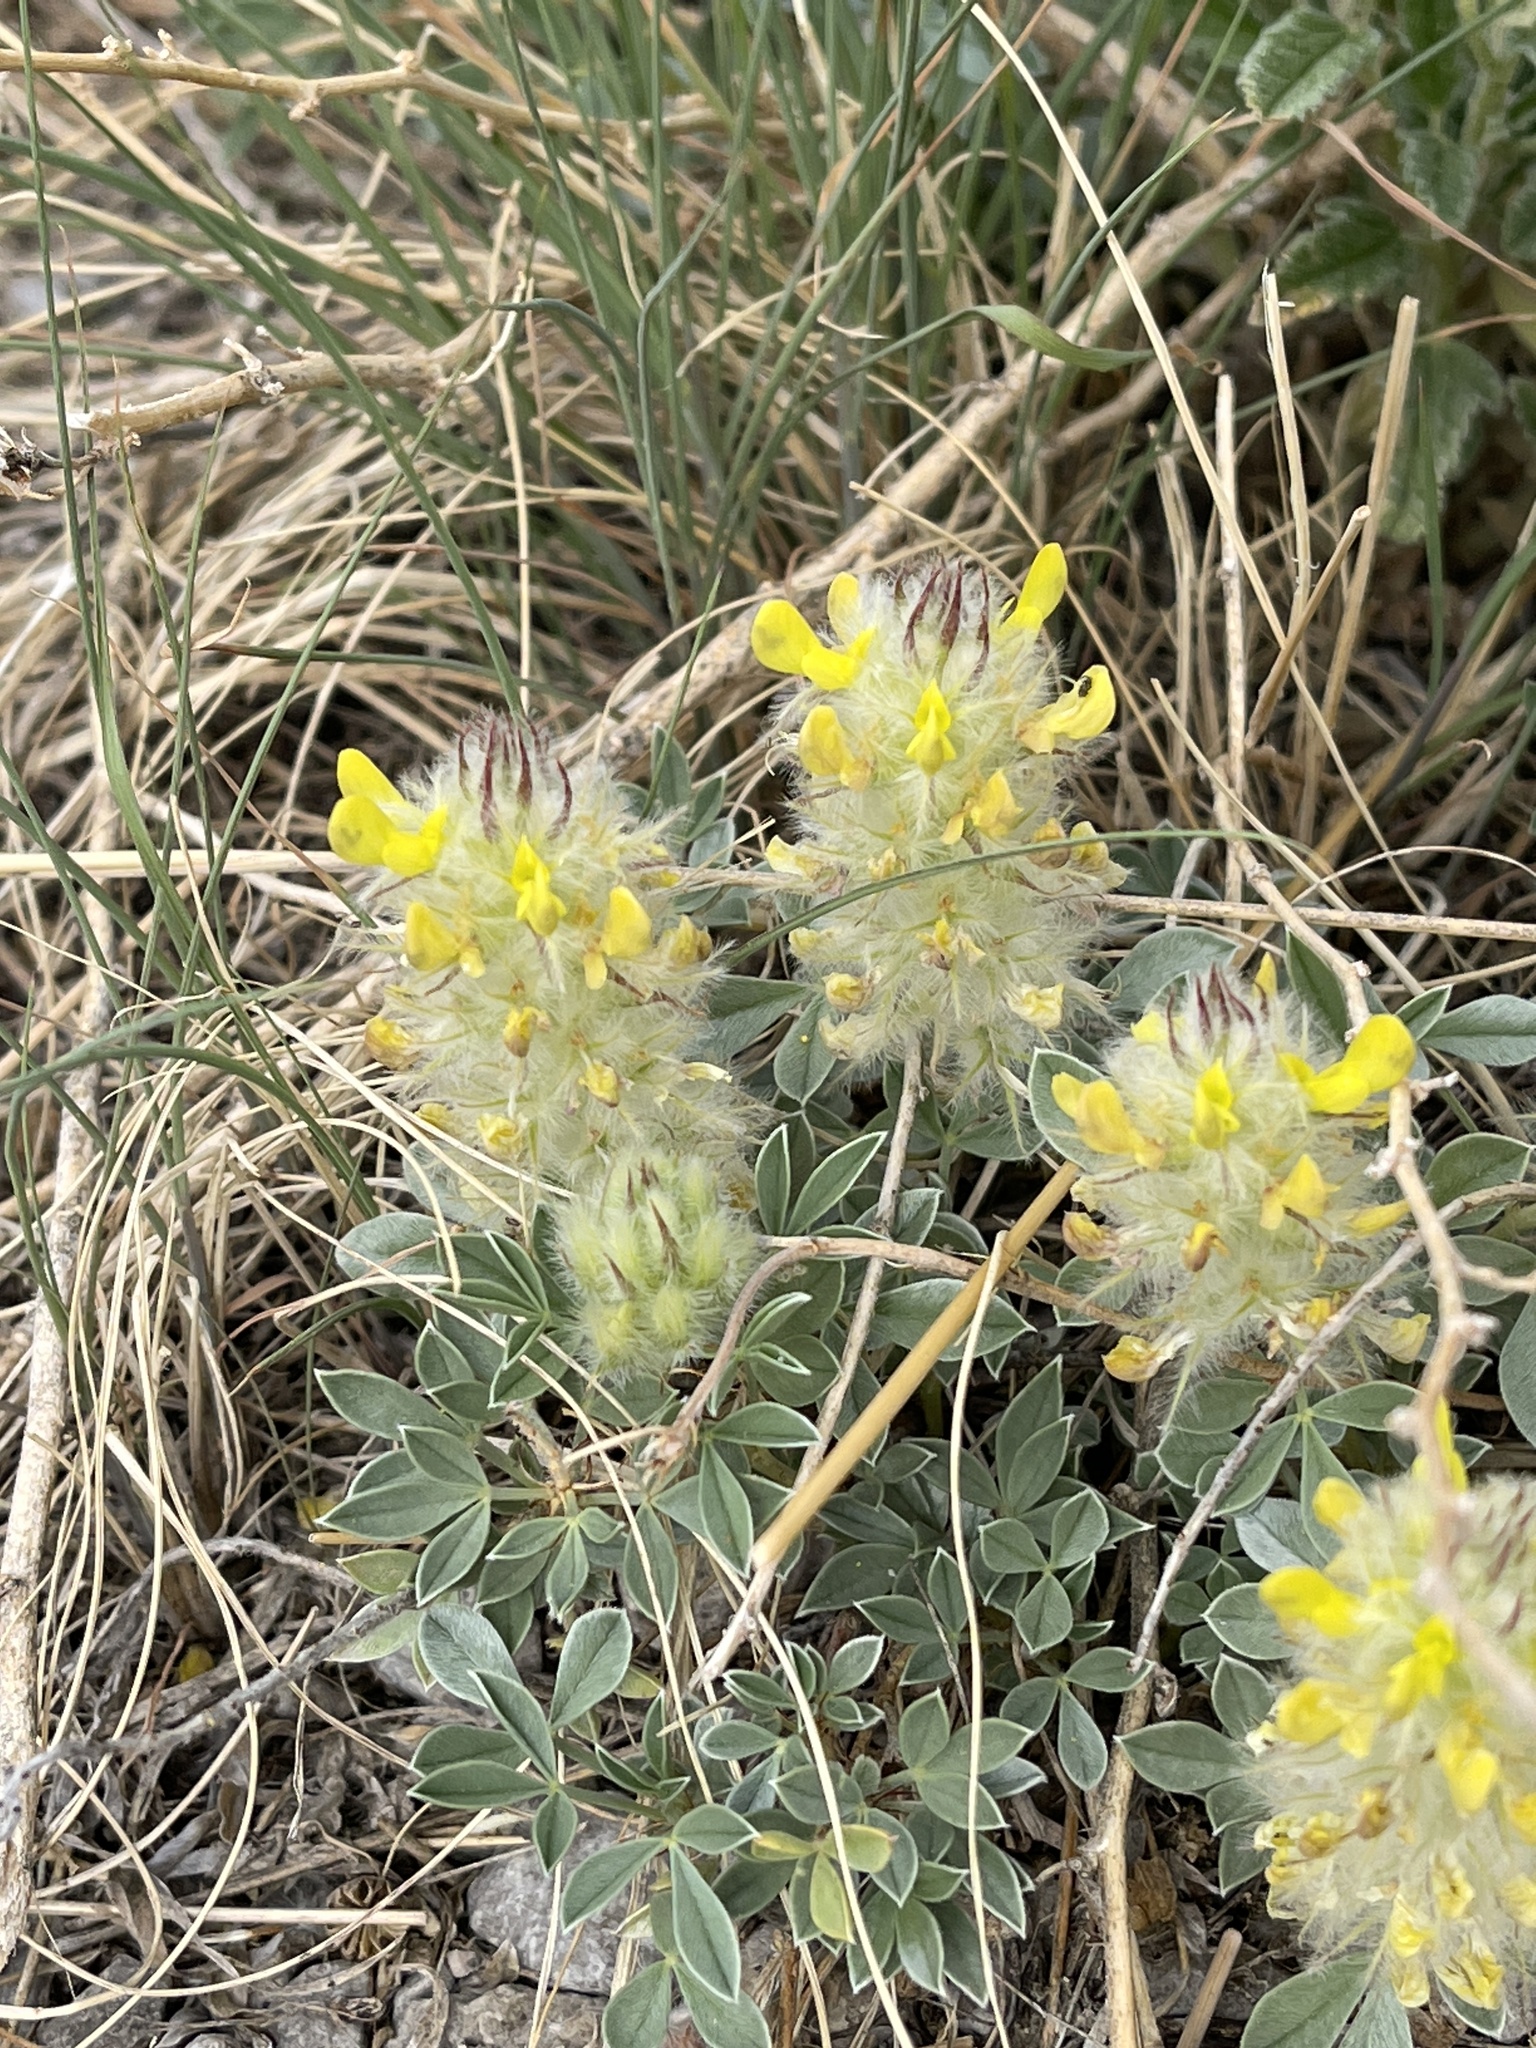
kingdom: Plantae
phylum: Tracheophyta
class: Magnoliopsida
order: Fabales
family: Fabaceae
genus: Dalea
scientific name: Dalea jamesii
